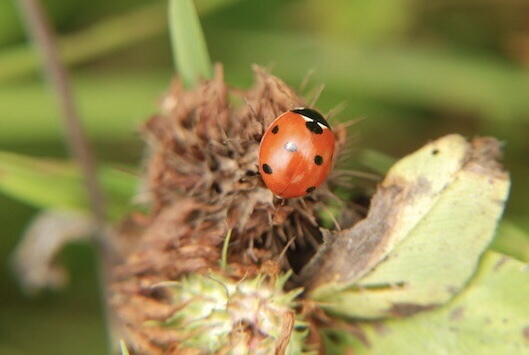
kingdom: Animalia
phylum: Arthropoda
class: Insecta
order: Coleoptera
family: Coccinellidae
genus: Coccinella
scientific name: Coccinella septempunctata
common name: Sevenspotted lady beetle
